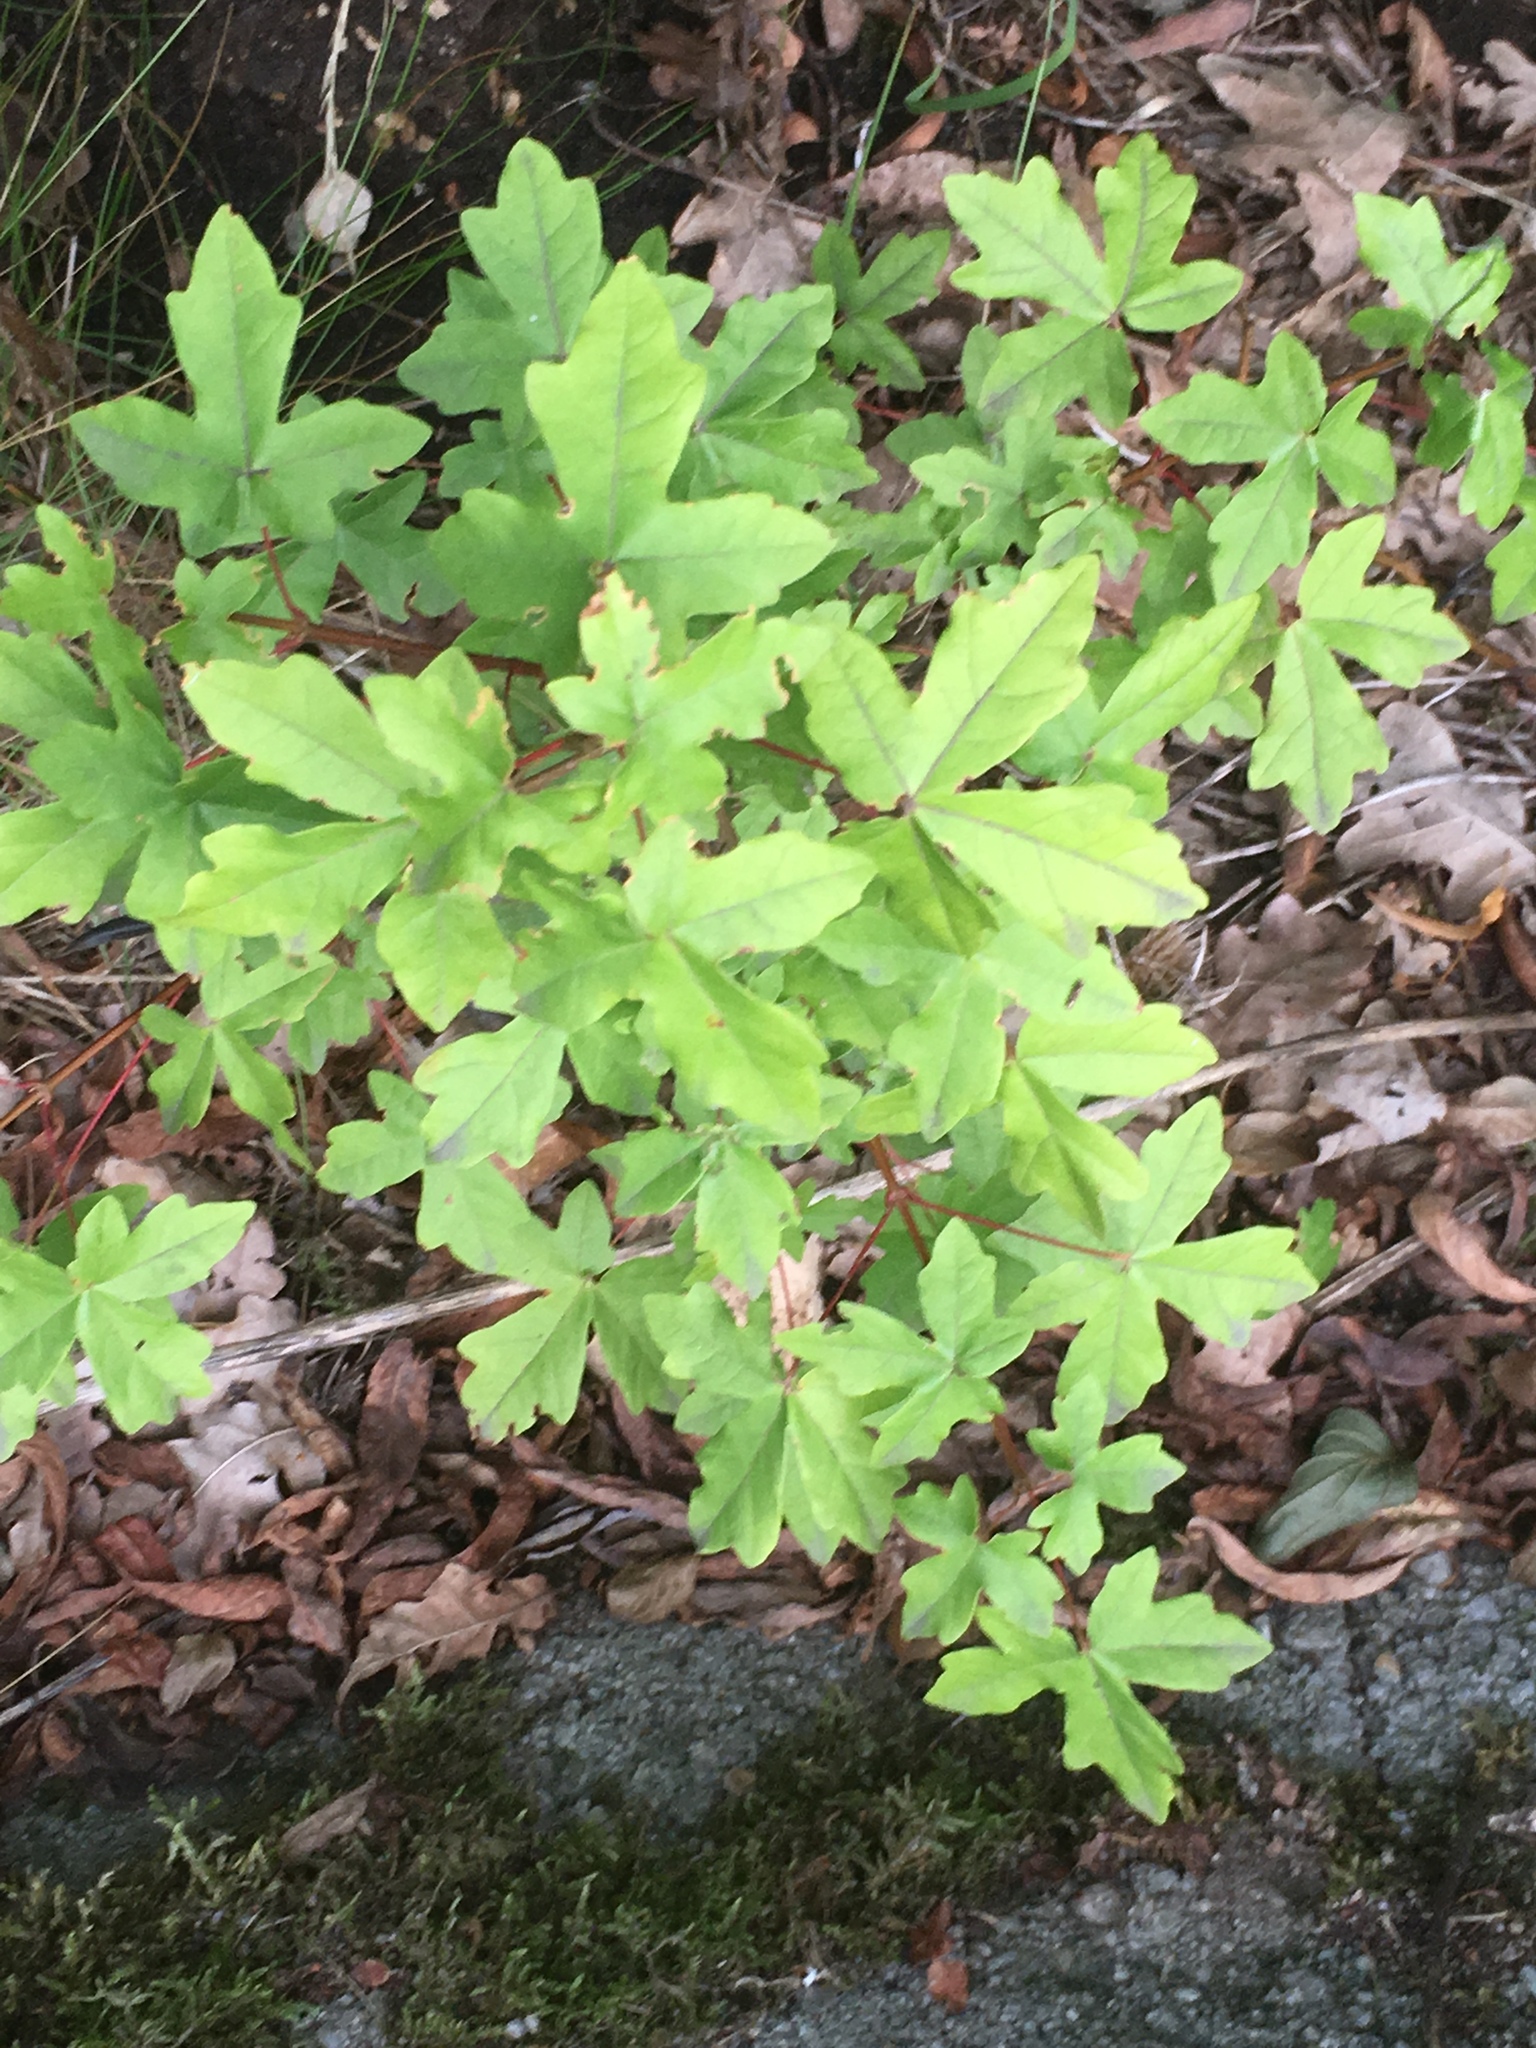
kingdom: Plantae
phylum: Tracheophyta
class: Magnoliopsida
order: Sapindales
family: Sapindaceae
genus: Acer
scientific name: Acer campestre
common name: Field maple
